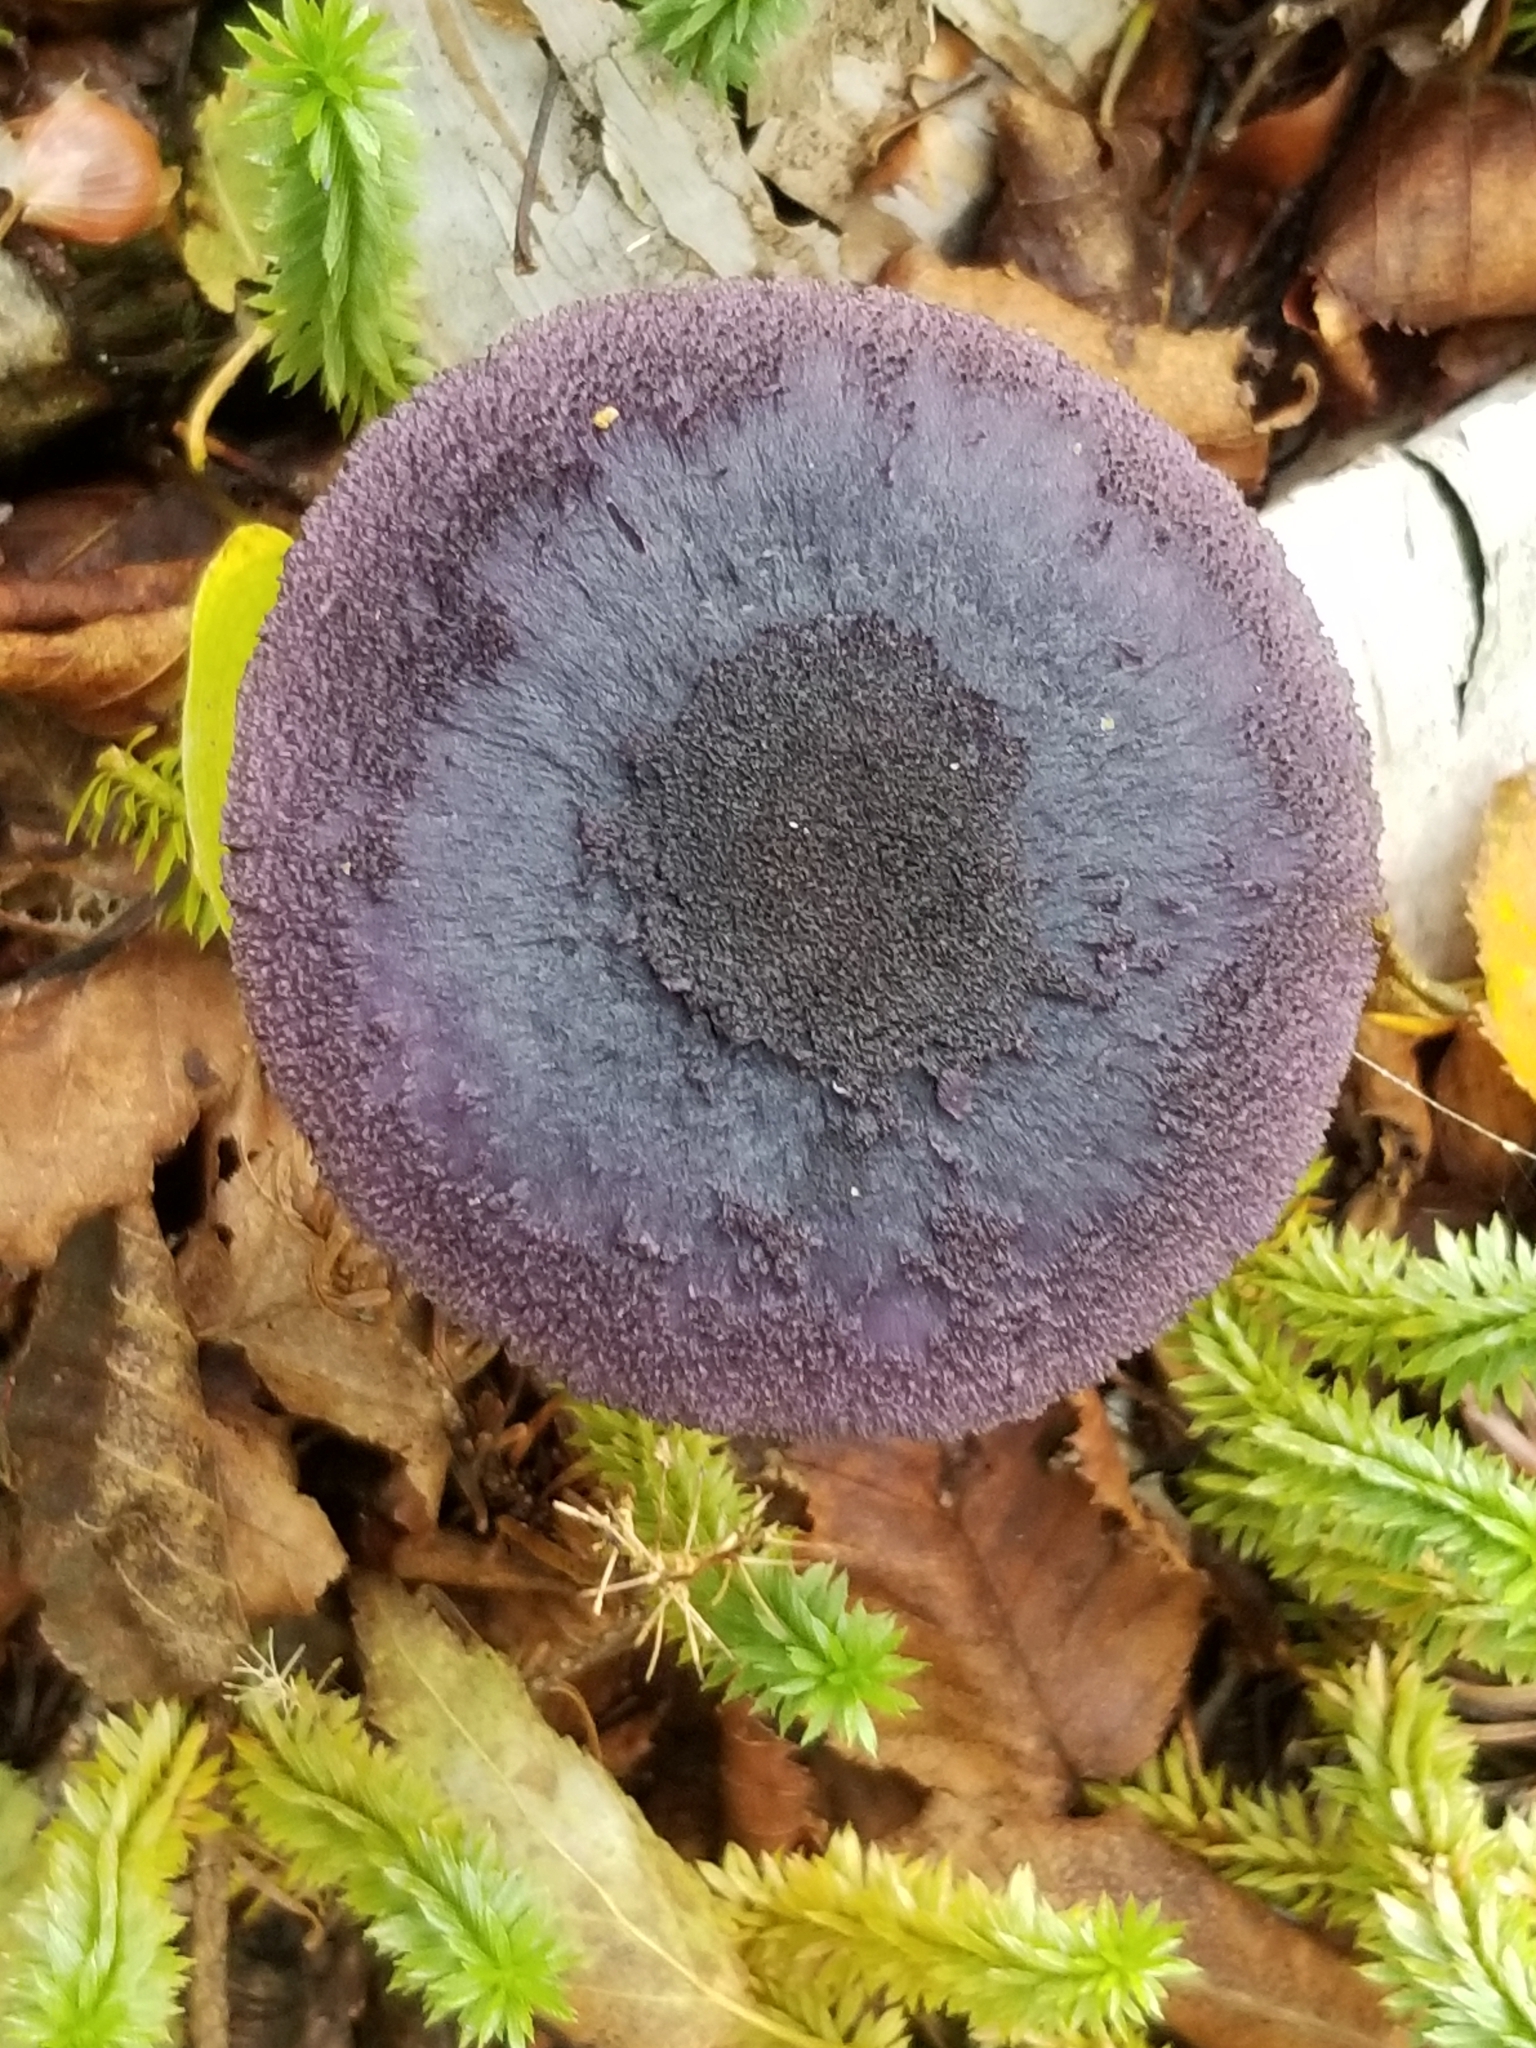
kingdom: Fungi
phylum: Basidiomycota
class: Agaricomycetes
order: Agaricales
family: Cortinariaceae
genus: Cortinarius
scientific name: Cortinarius violaceus
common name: Violet webcap
